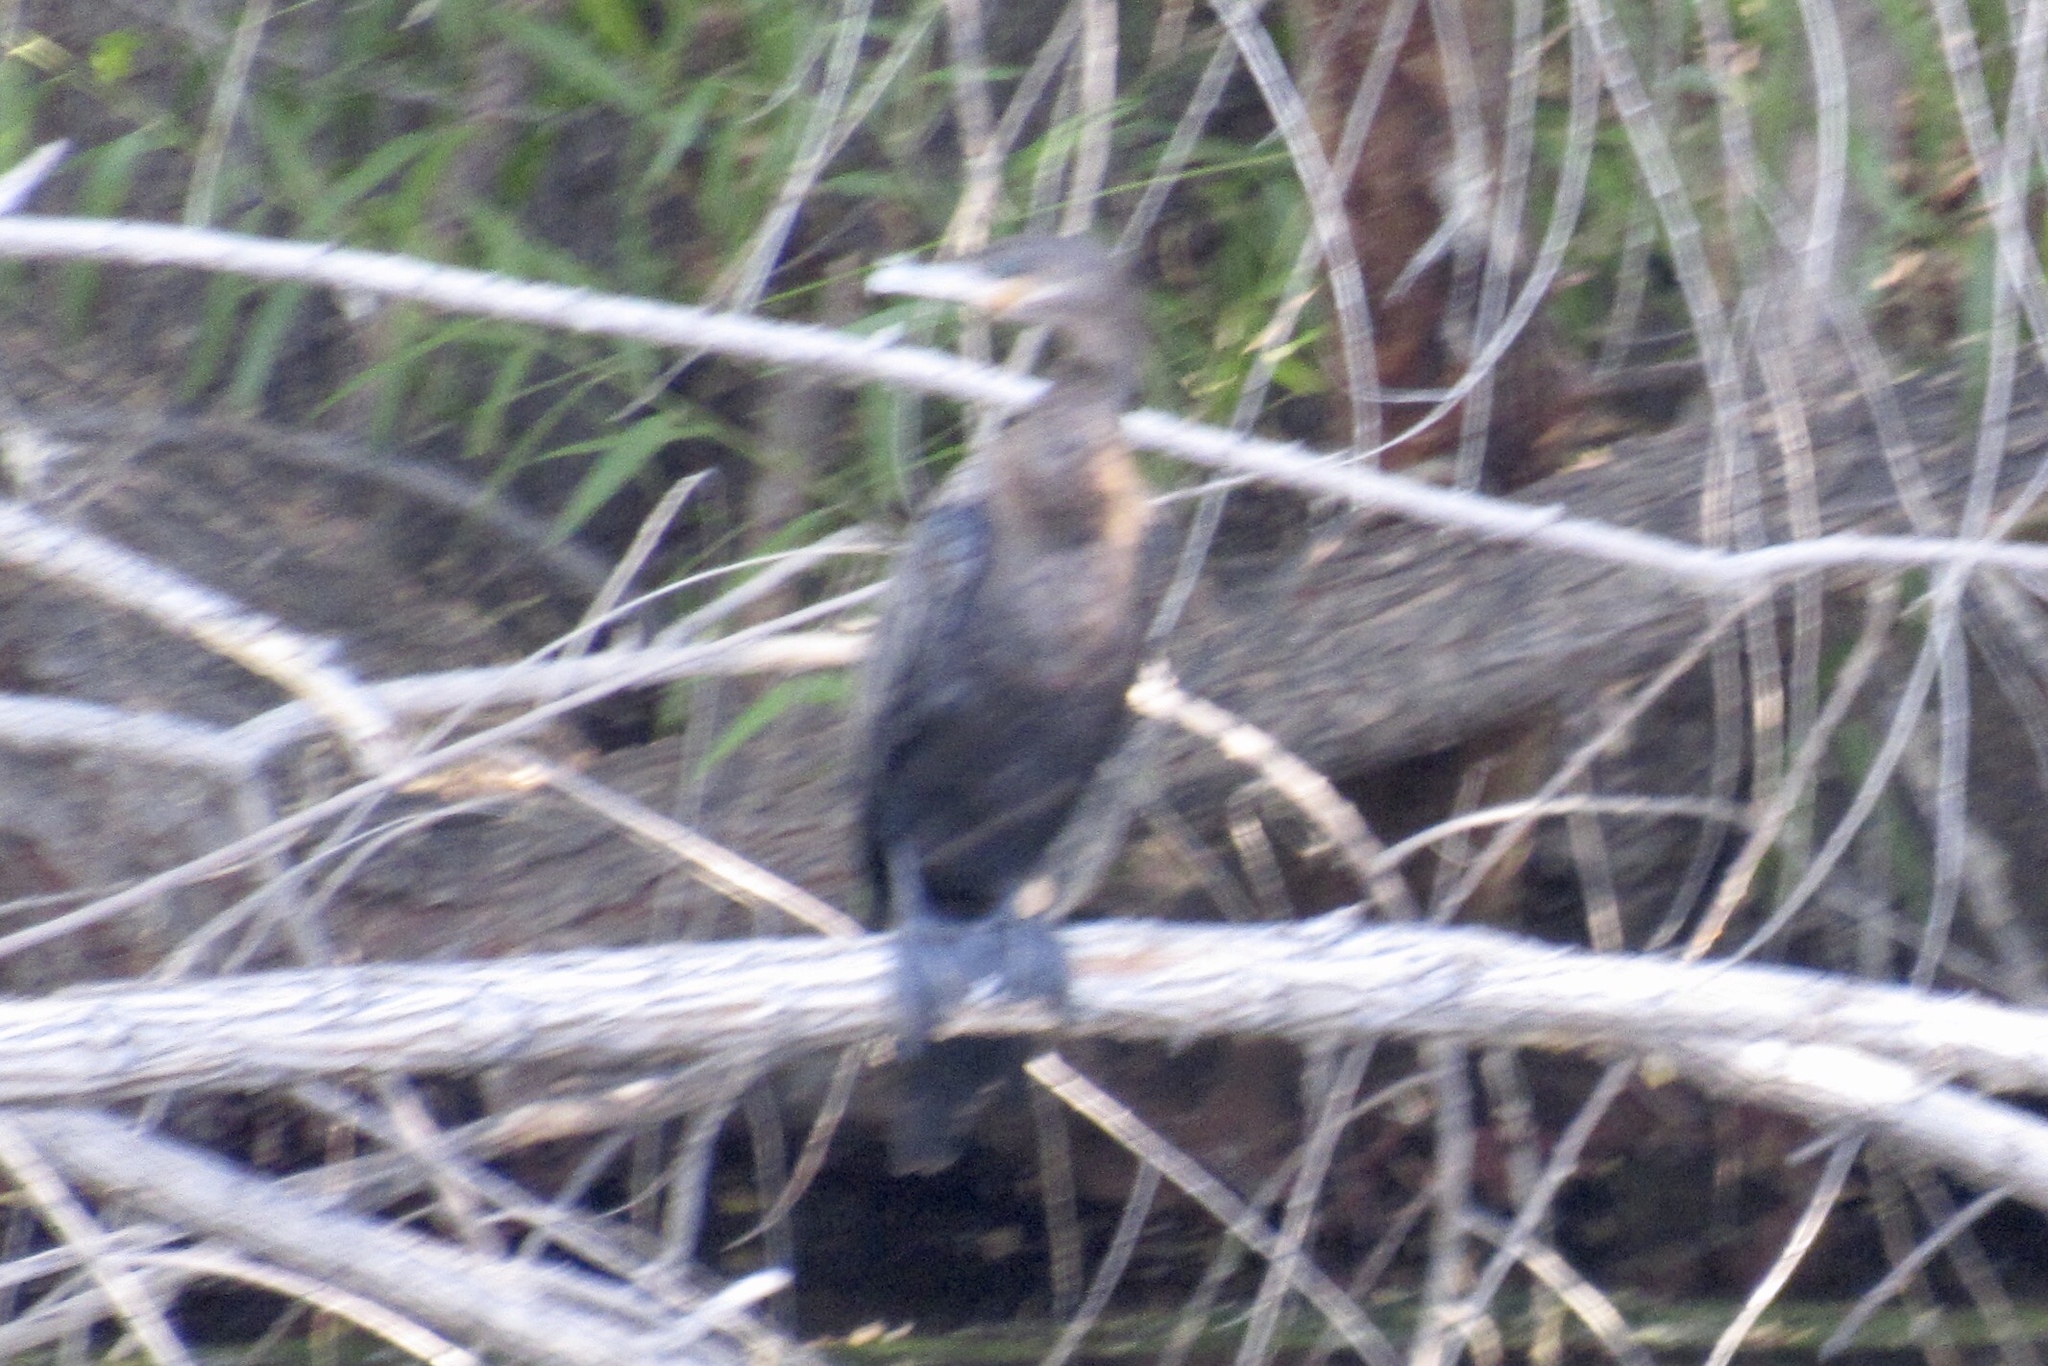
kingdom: Animalia
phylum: Chordata
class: Aves
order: Suliformes
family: Phalacrocoracidae
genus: Phalacrocorax
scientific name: Phalacrocorax brasilianus
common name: Neotropic cormorant
